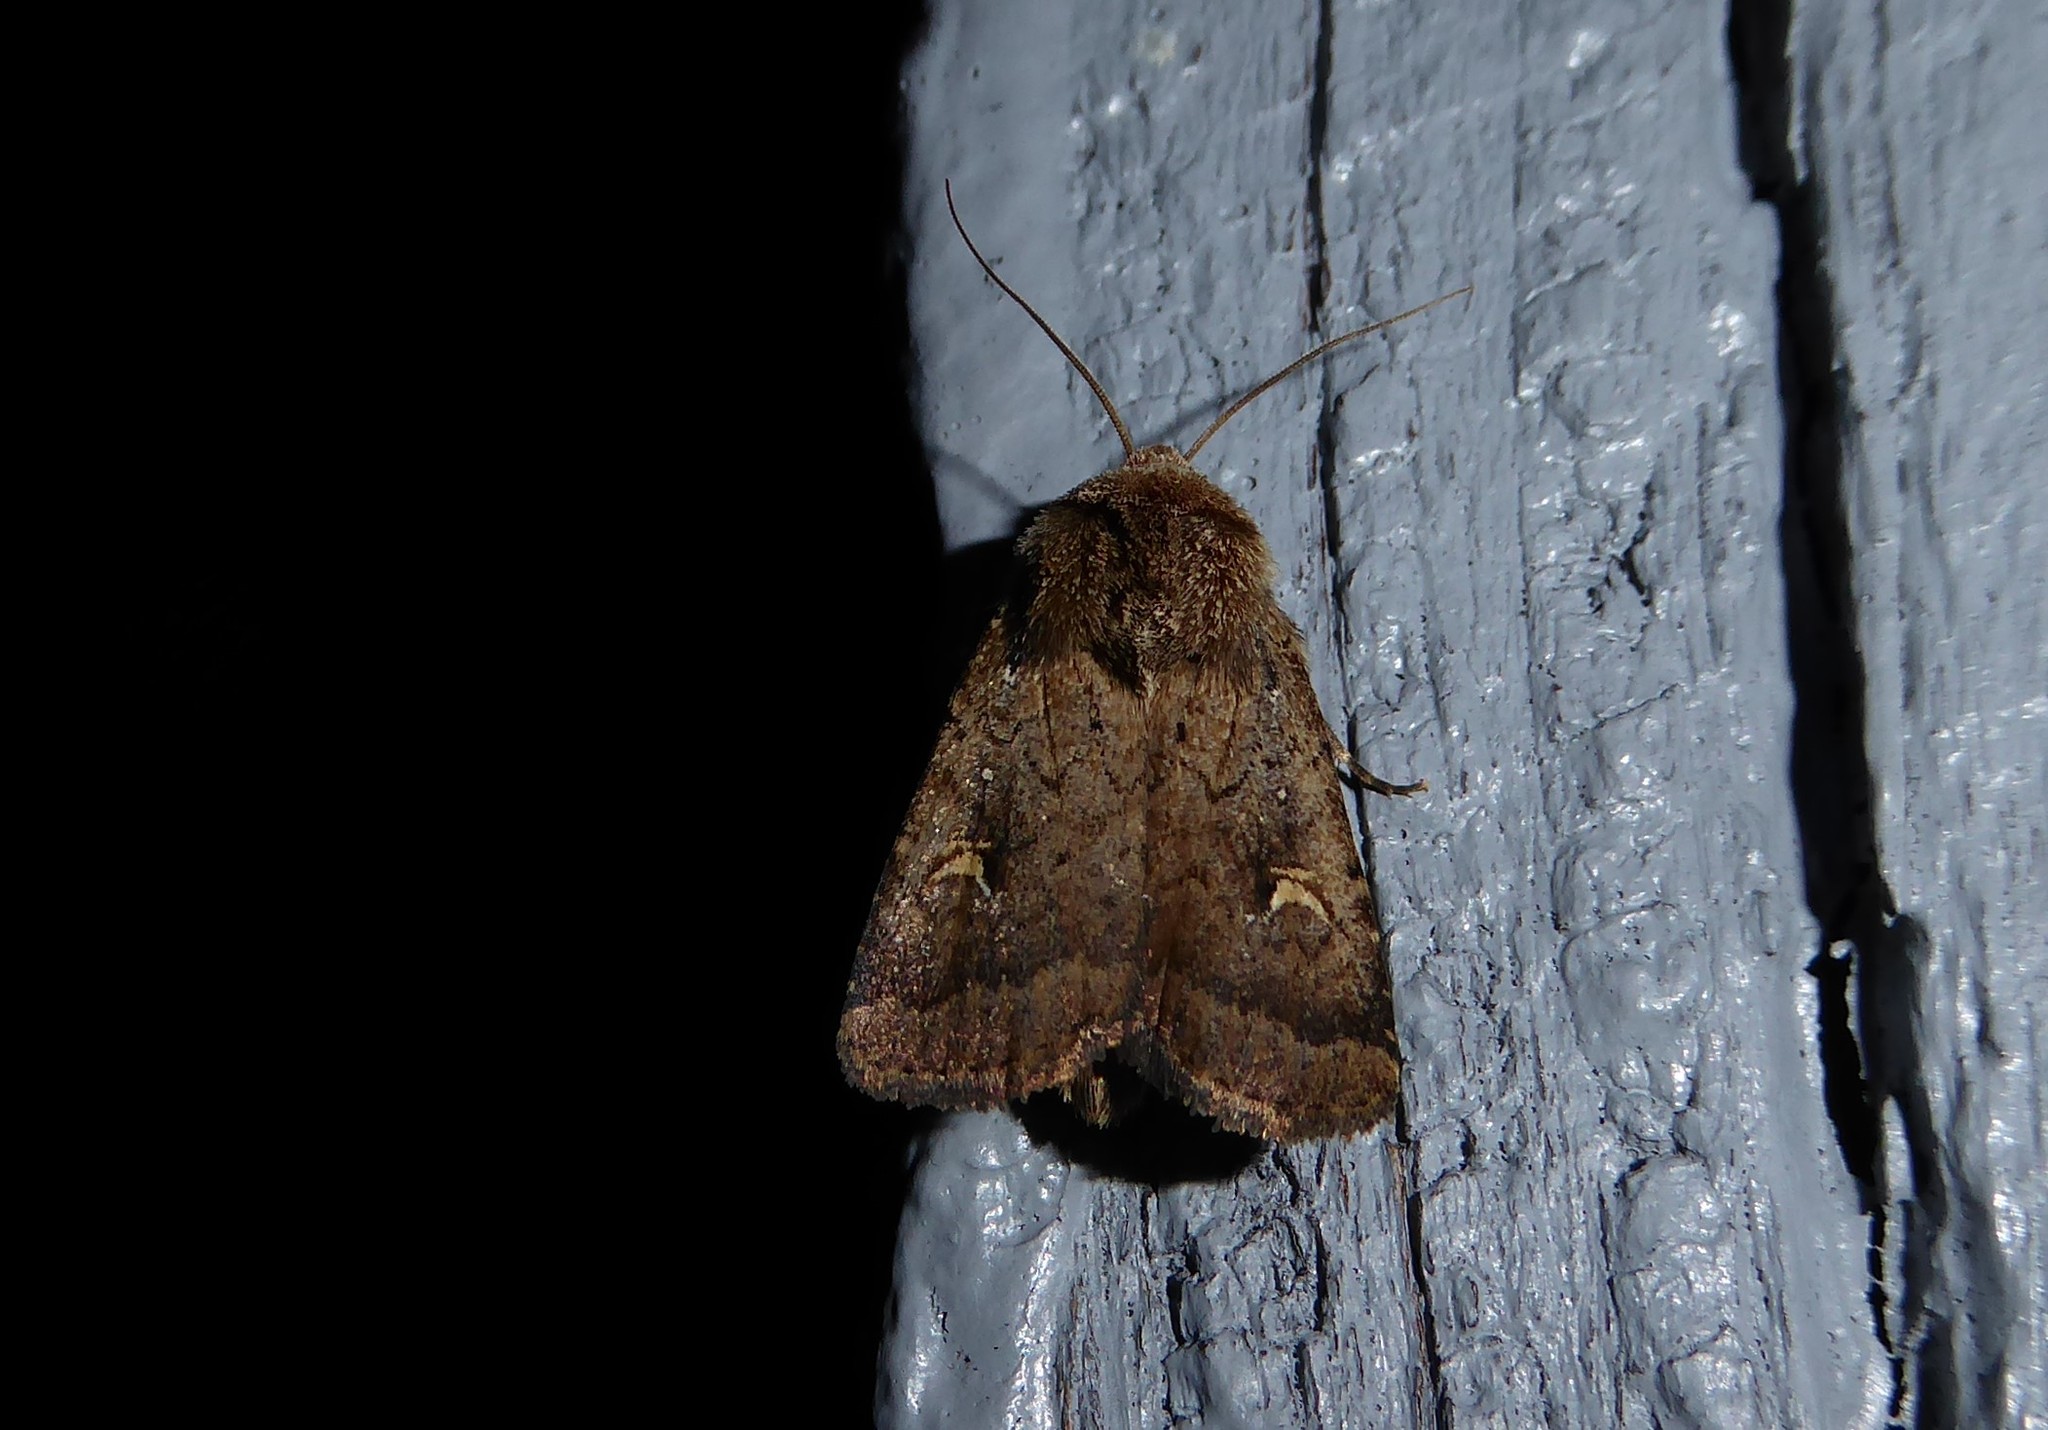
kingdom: Animalia
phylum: Arthropoda
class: Insecta
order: Lepidoptera
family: Noctuidae
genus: Proteuxoa
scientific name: Proteuxoa tetronycha
